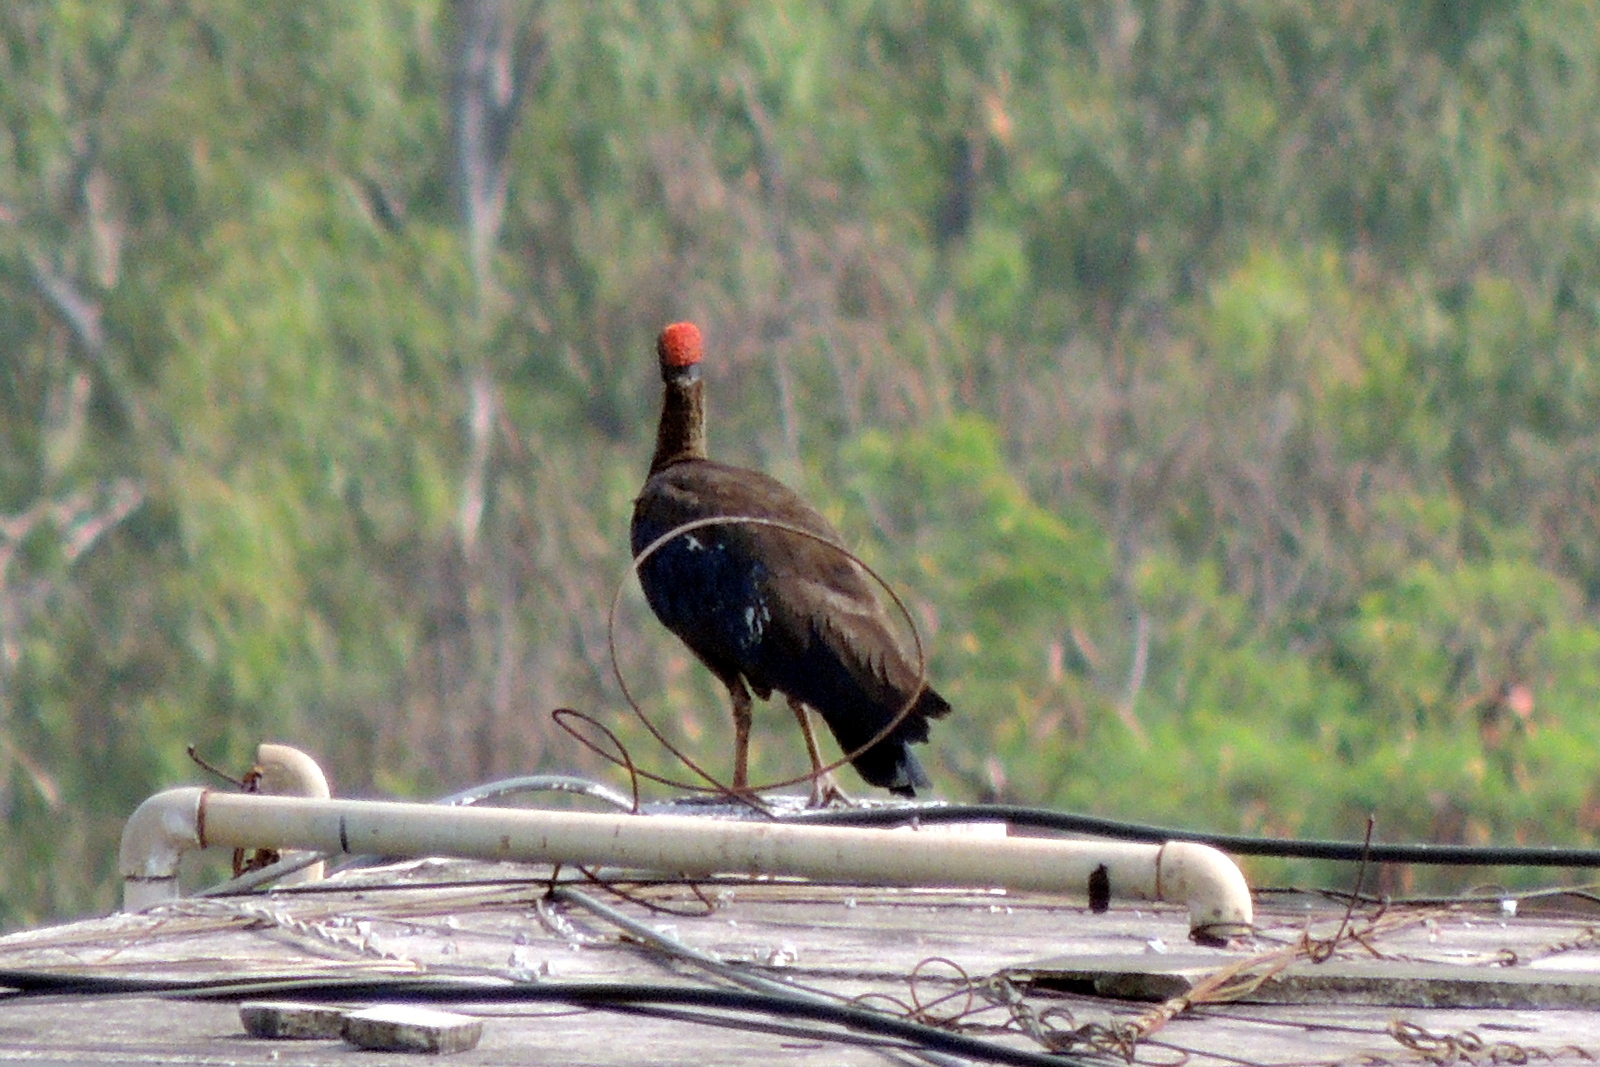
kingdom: Animalia
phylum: Chordata
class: Aves
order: Pelecaniformes
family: Threskiornithidae
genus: Pseudibis
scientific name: Pseudibis papillosa
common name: Red-naped ibis
